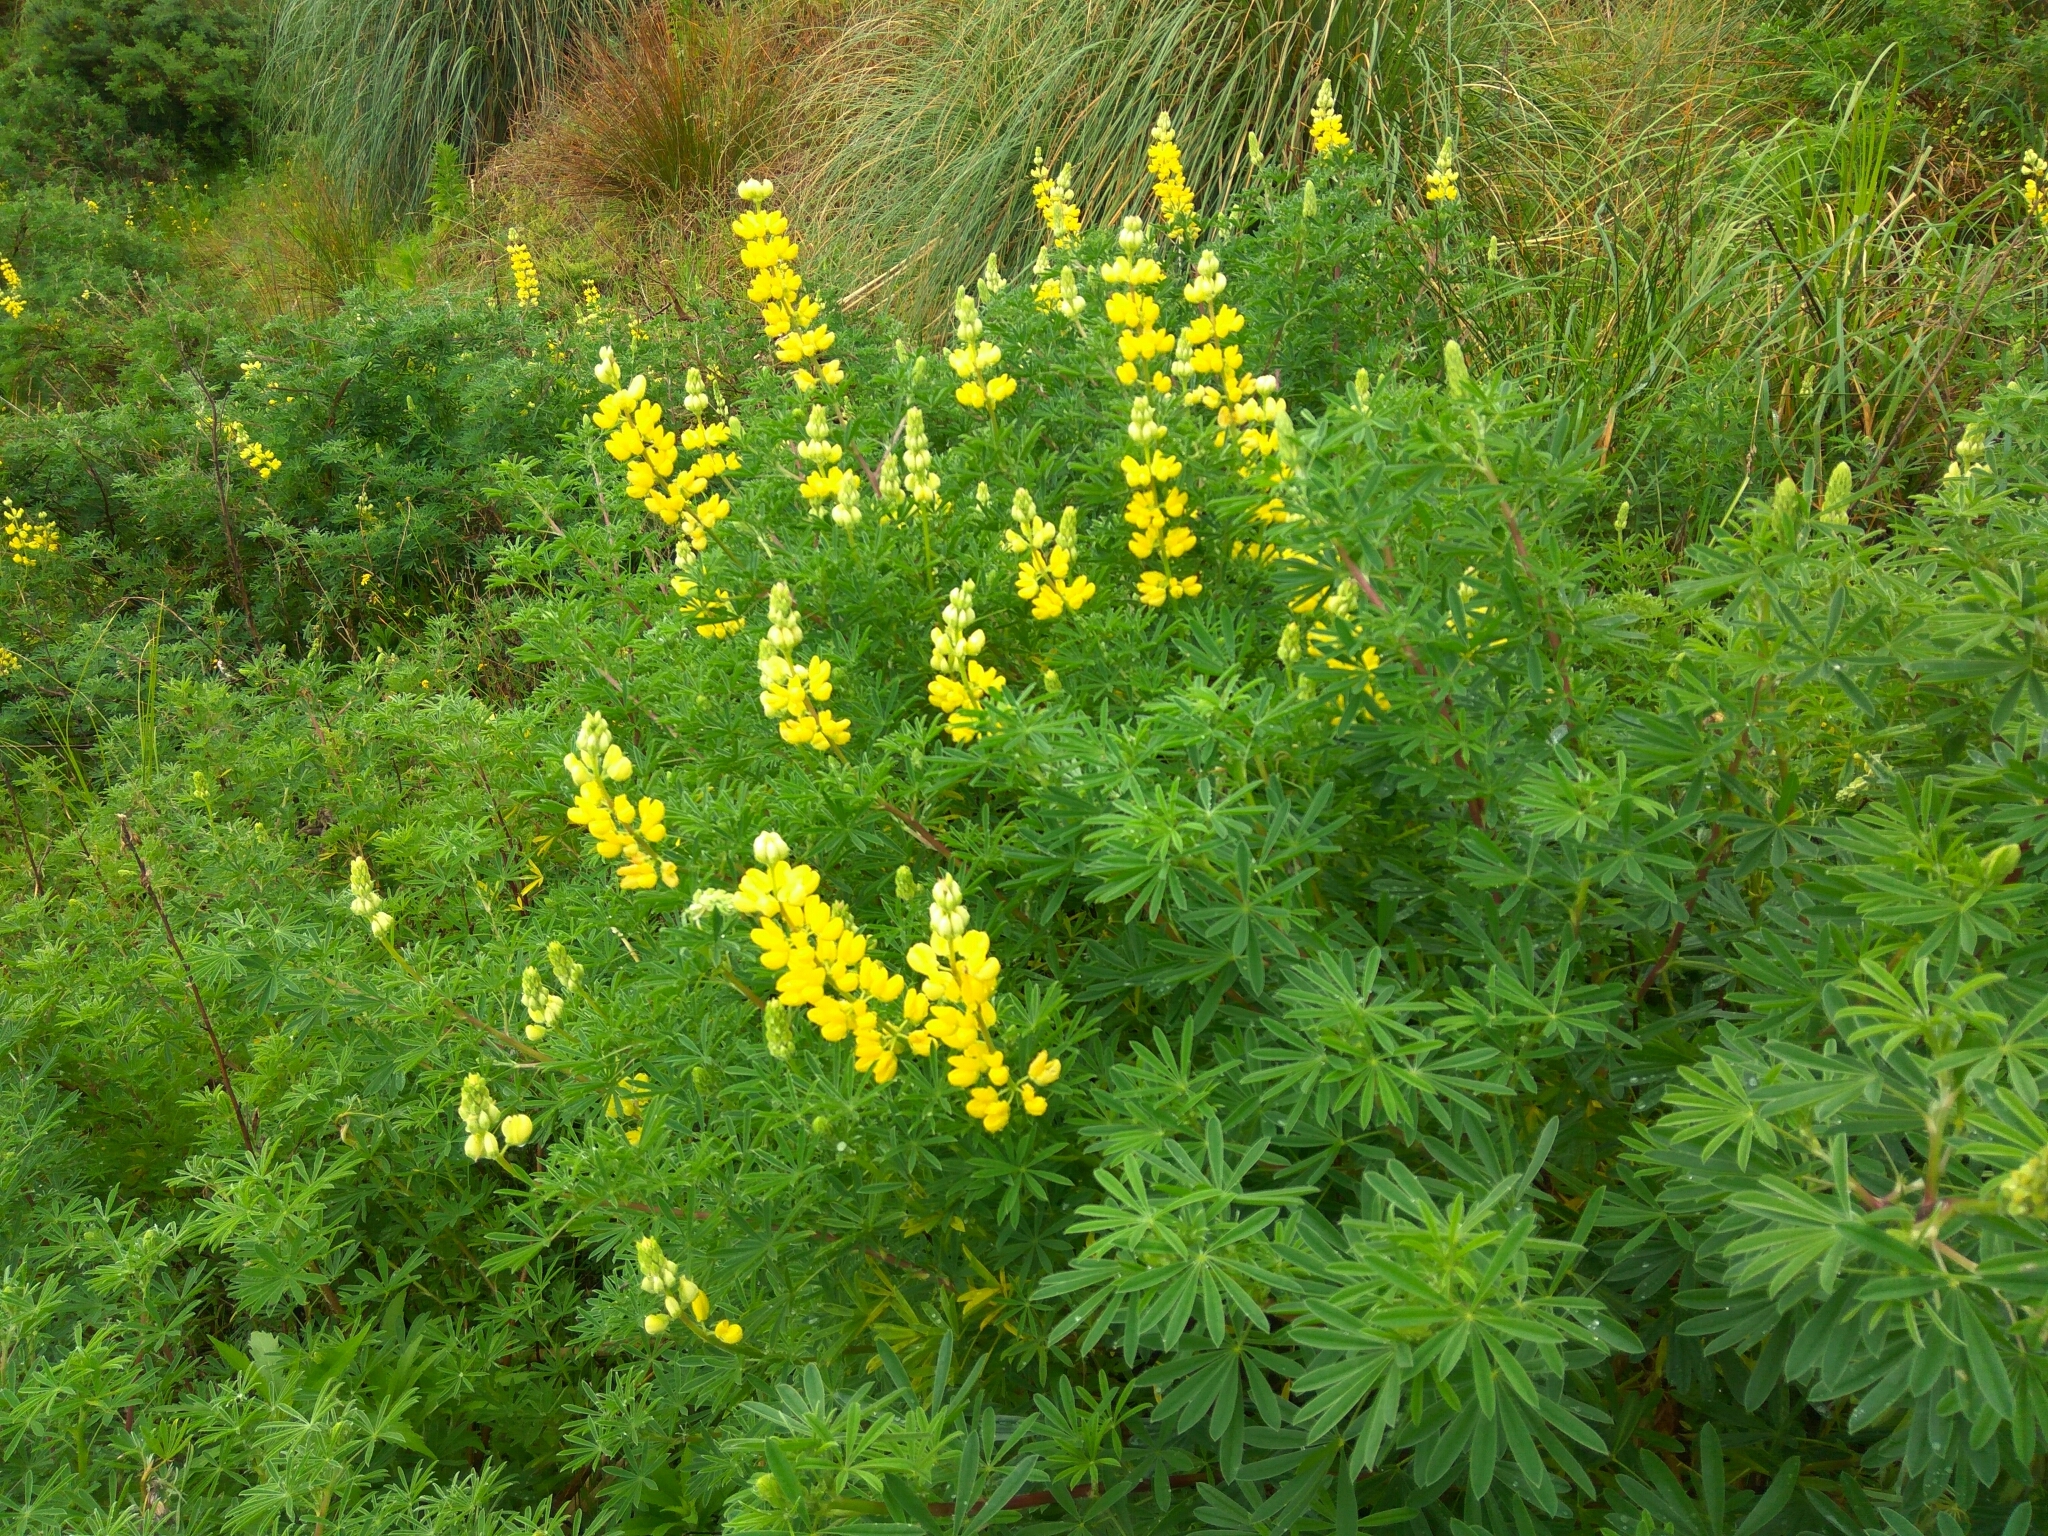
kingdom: Plantae
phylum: Tracheophyta
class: Magnoliopsida
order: Fabales
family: Fabaceae
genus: Lupinus
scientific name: Lupinus arboreus
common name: Yellow bush lupine
